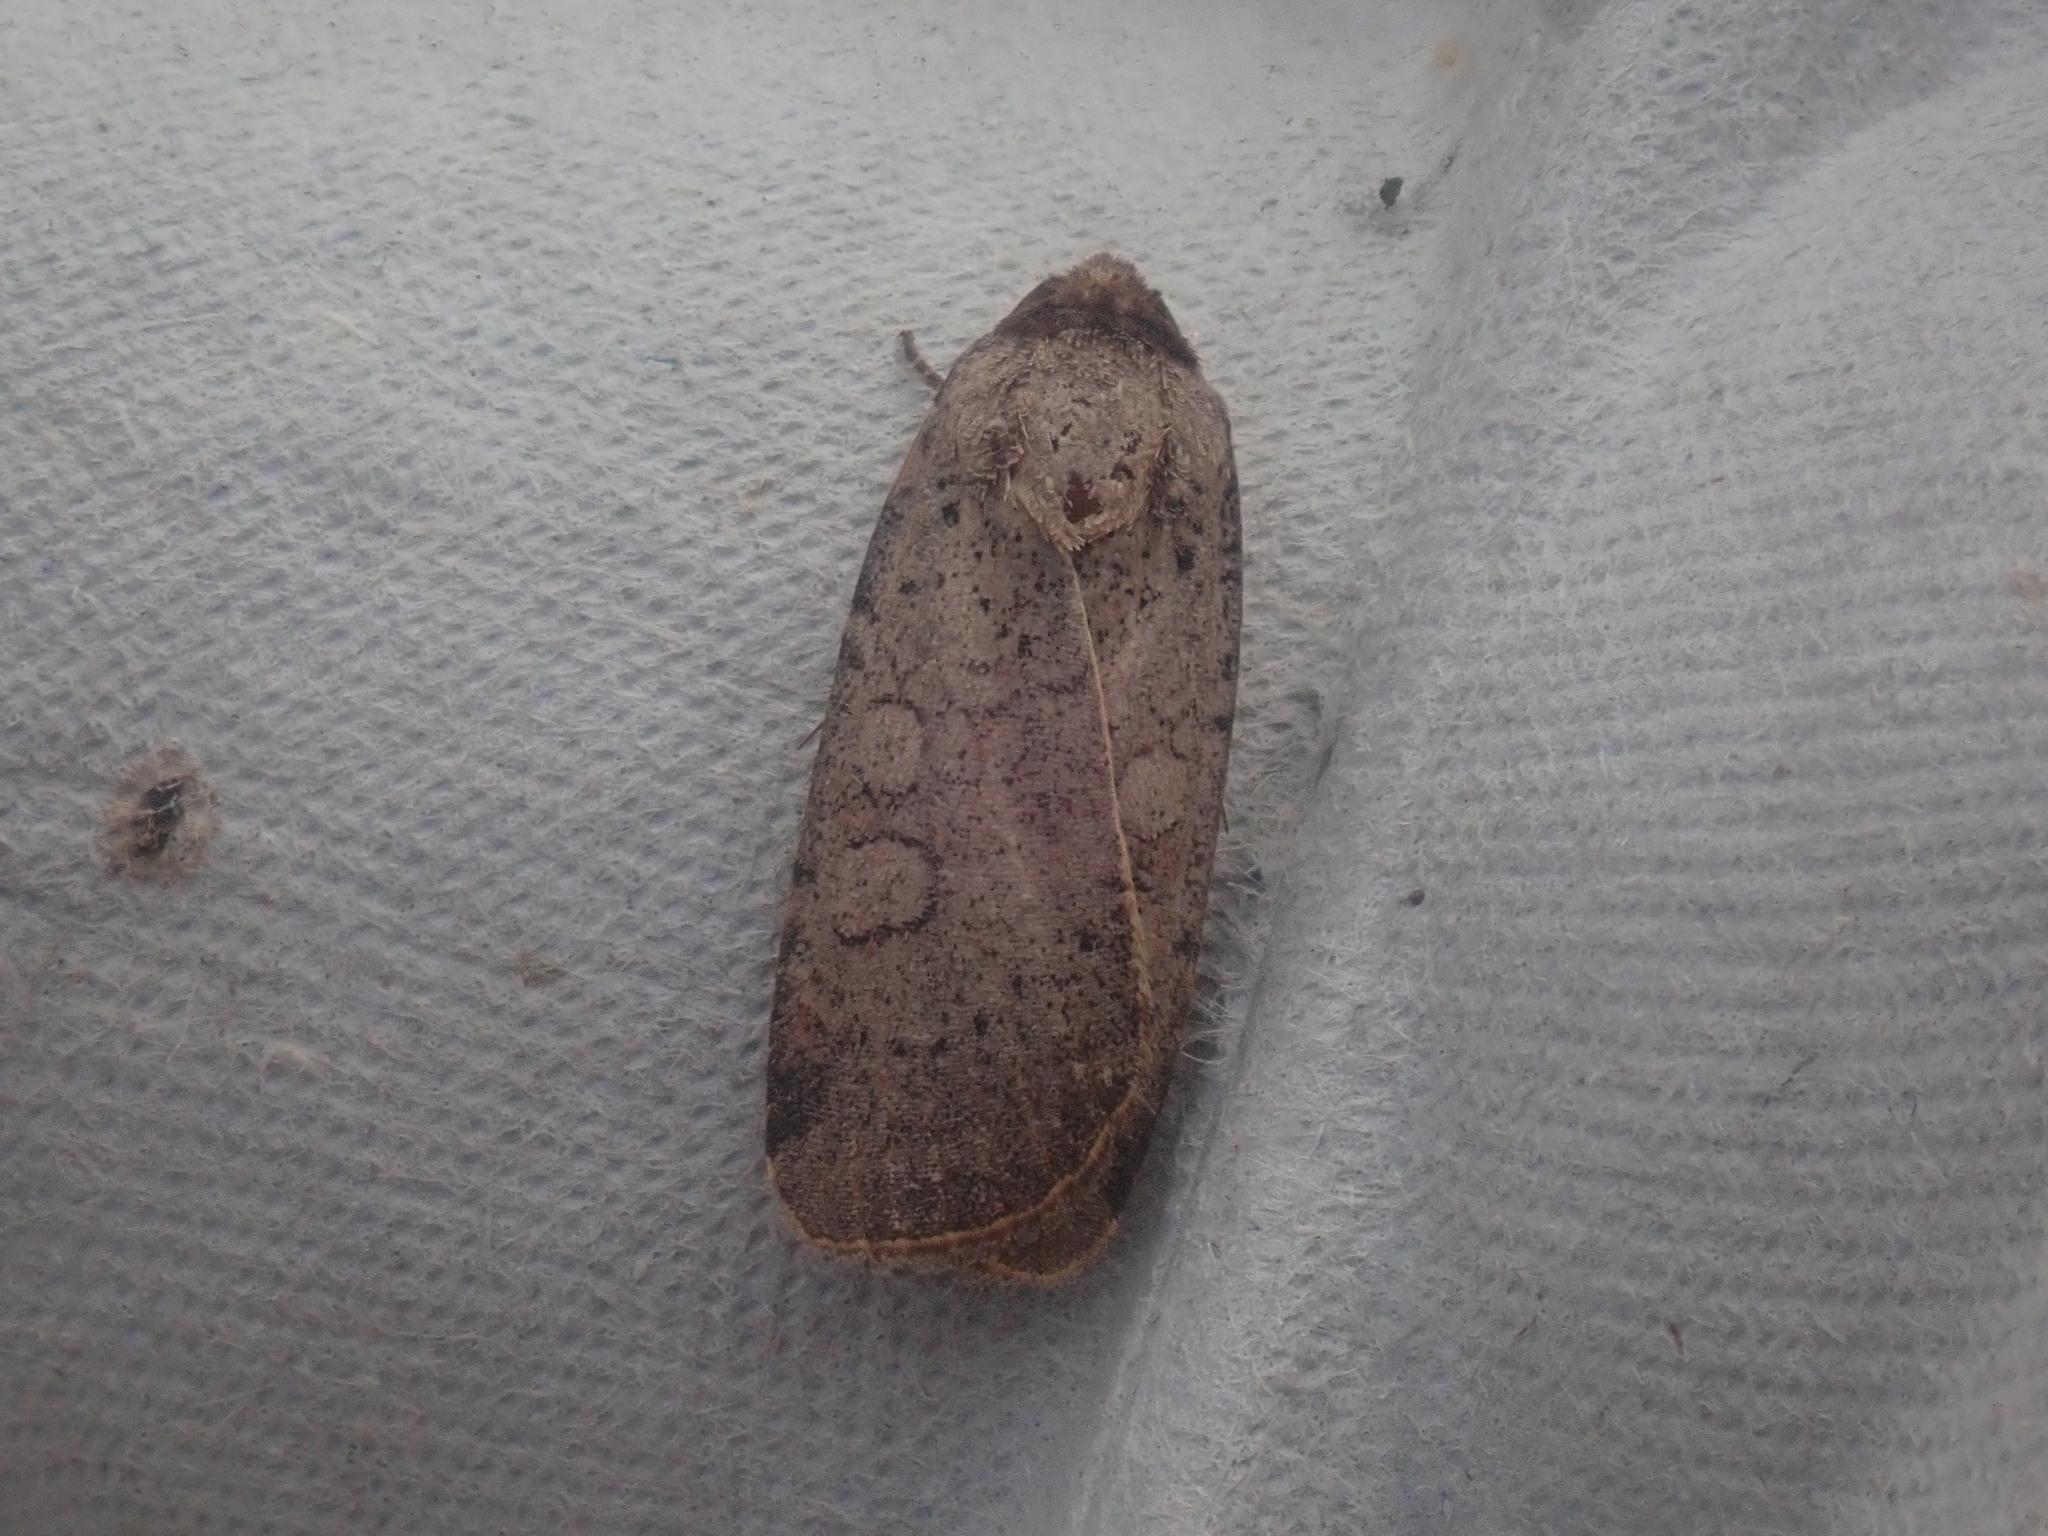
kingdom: Animalia
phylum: Arthropoda
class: Insecta
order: Lepidoptera
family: Noctuidae
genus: Protolampra
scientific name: Protolampra brunneicollis
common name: Brown-collared dart
